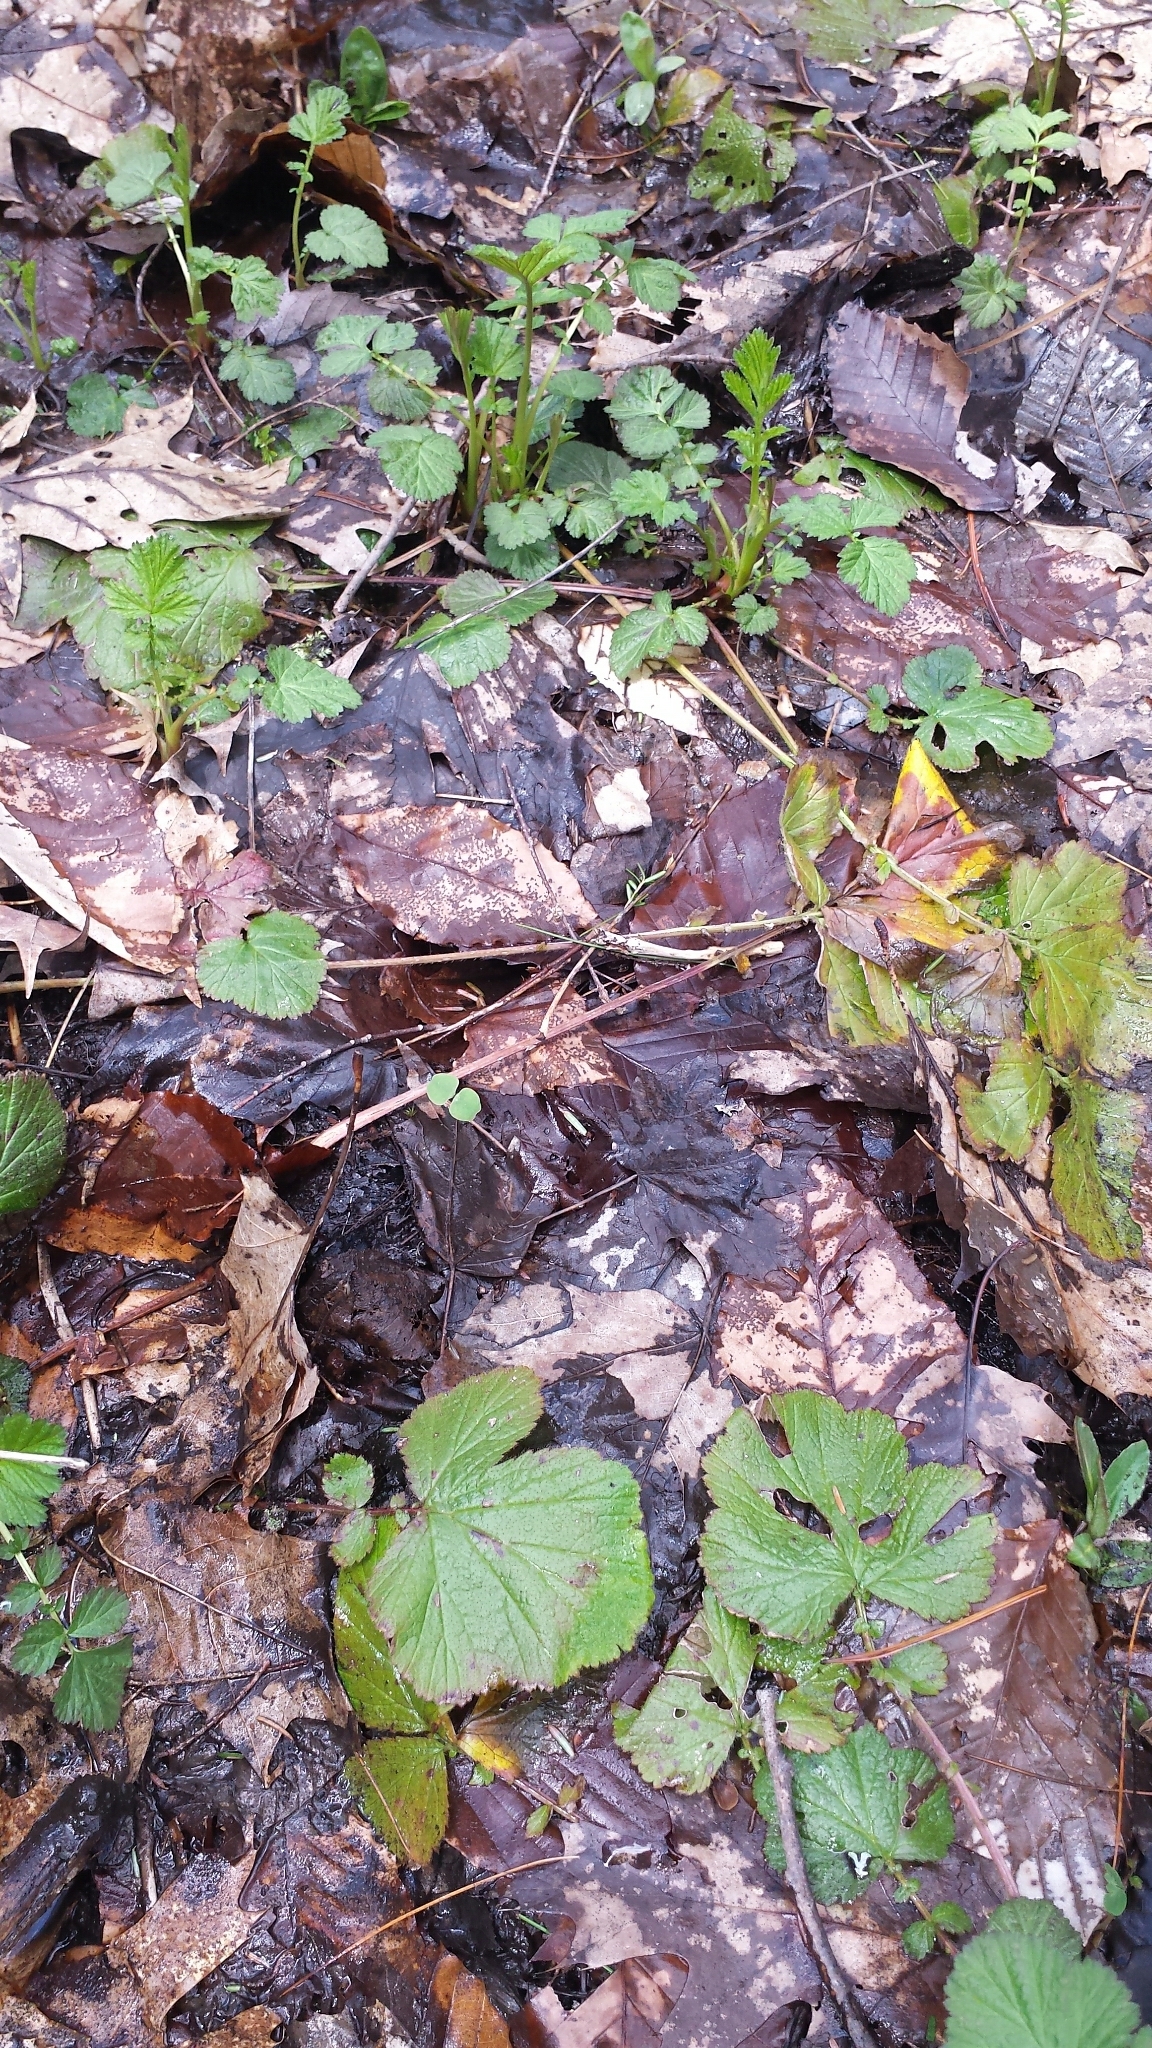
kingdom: Plantae
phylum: Tracheophyta
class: Magnoliopsida
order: Rosales
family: Rosaceae
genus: Geum
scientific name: Geum rivale
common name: Water avens
